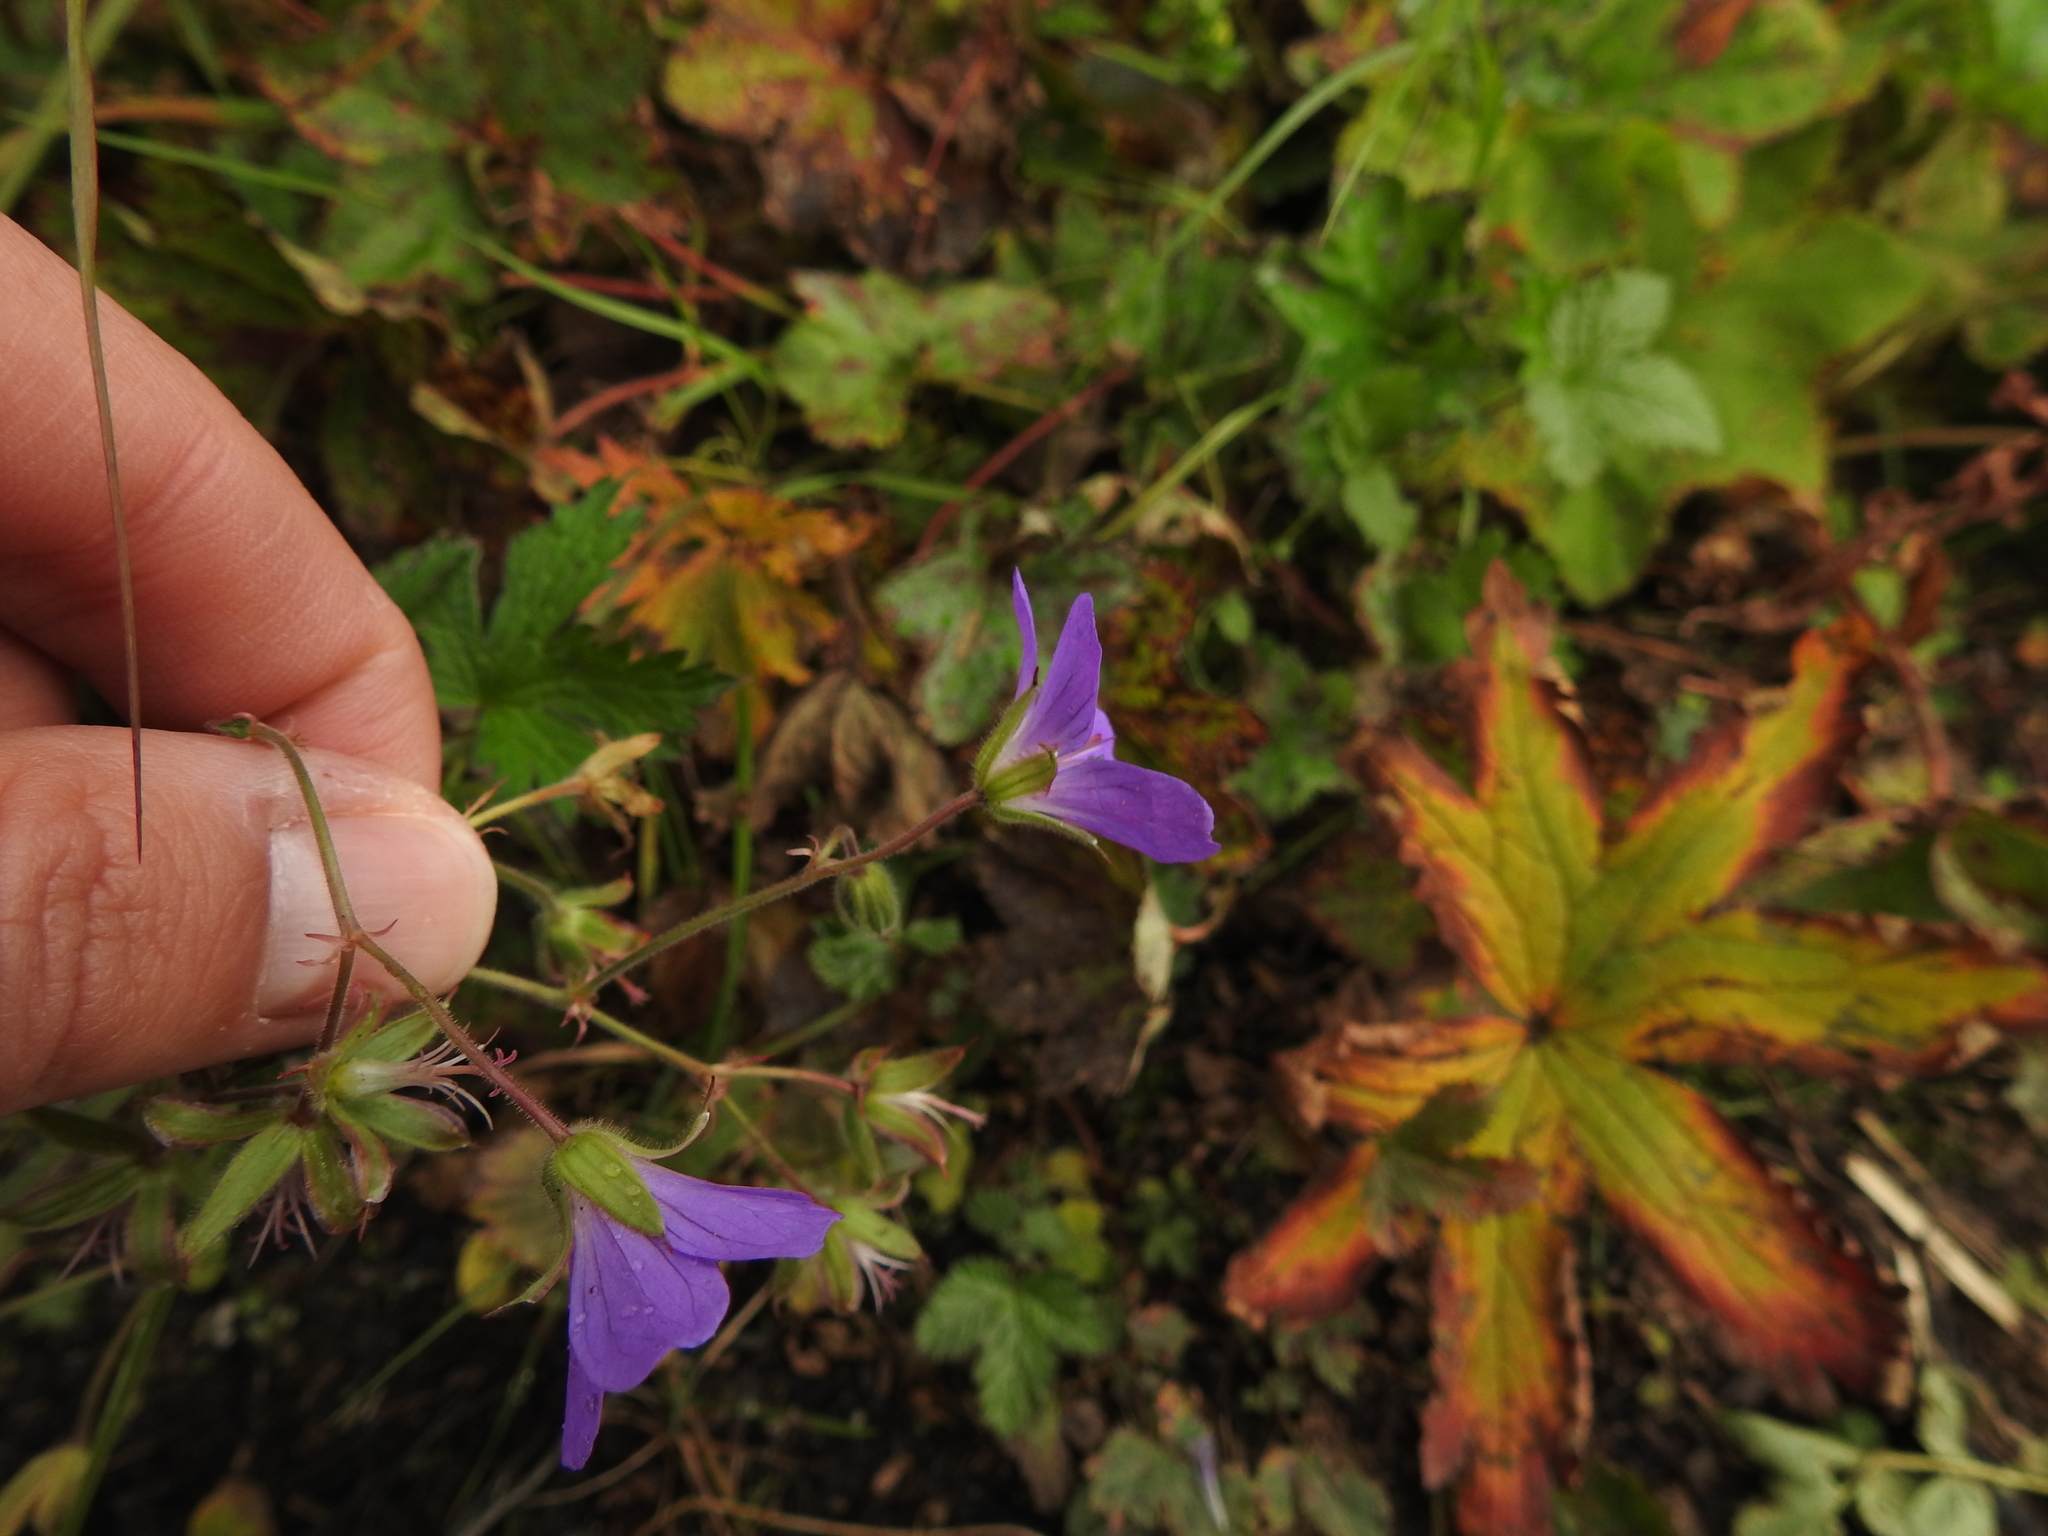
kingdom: Plantae
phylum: Tracheophyta
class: Magnoliopsida
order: Geraniales
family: Geraniaceae
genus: Geranium
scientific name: Geranium sylvaticum
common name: Wood crane's-bill
